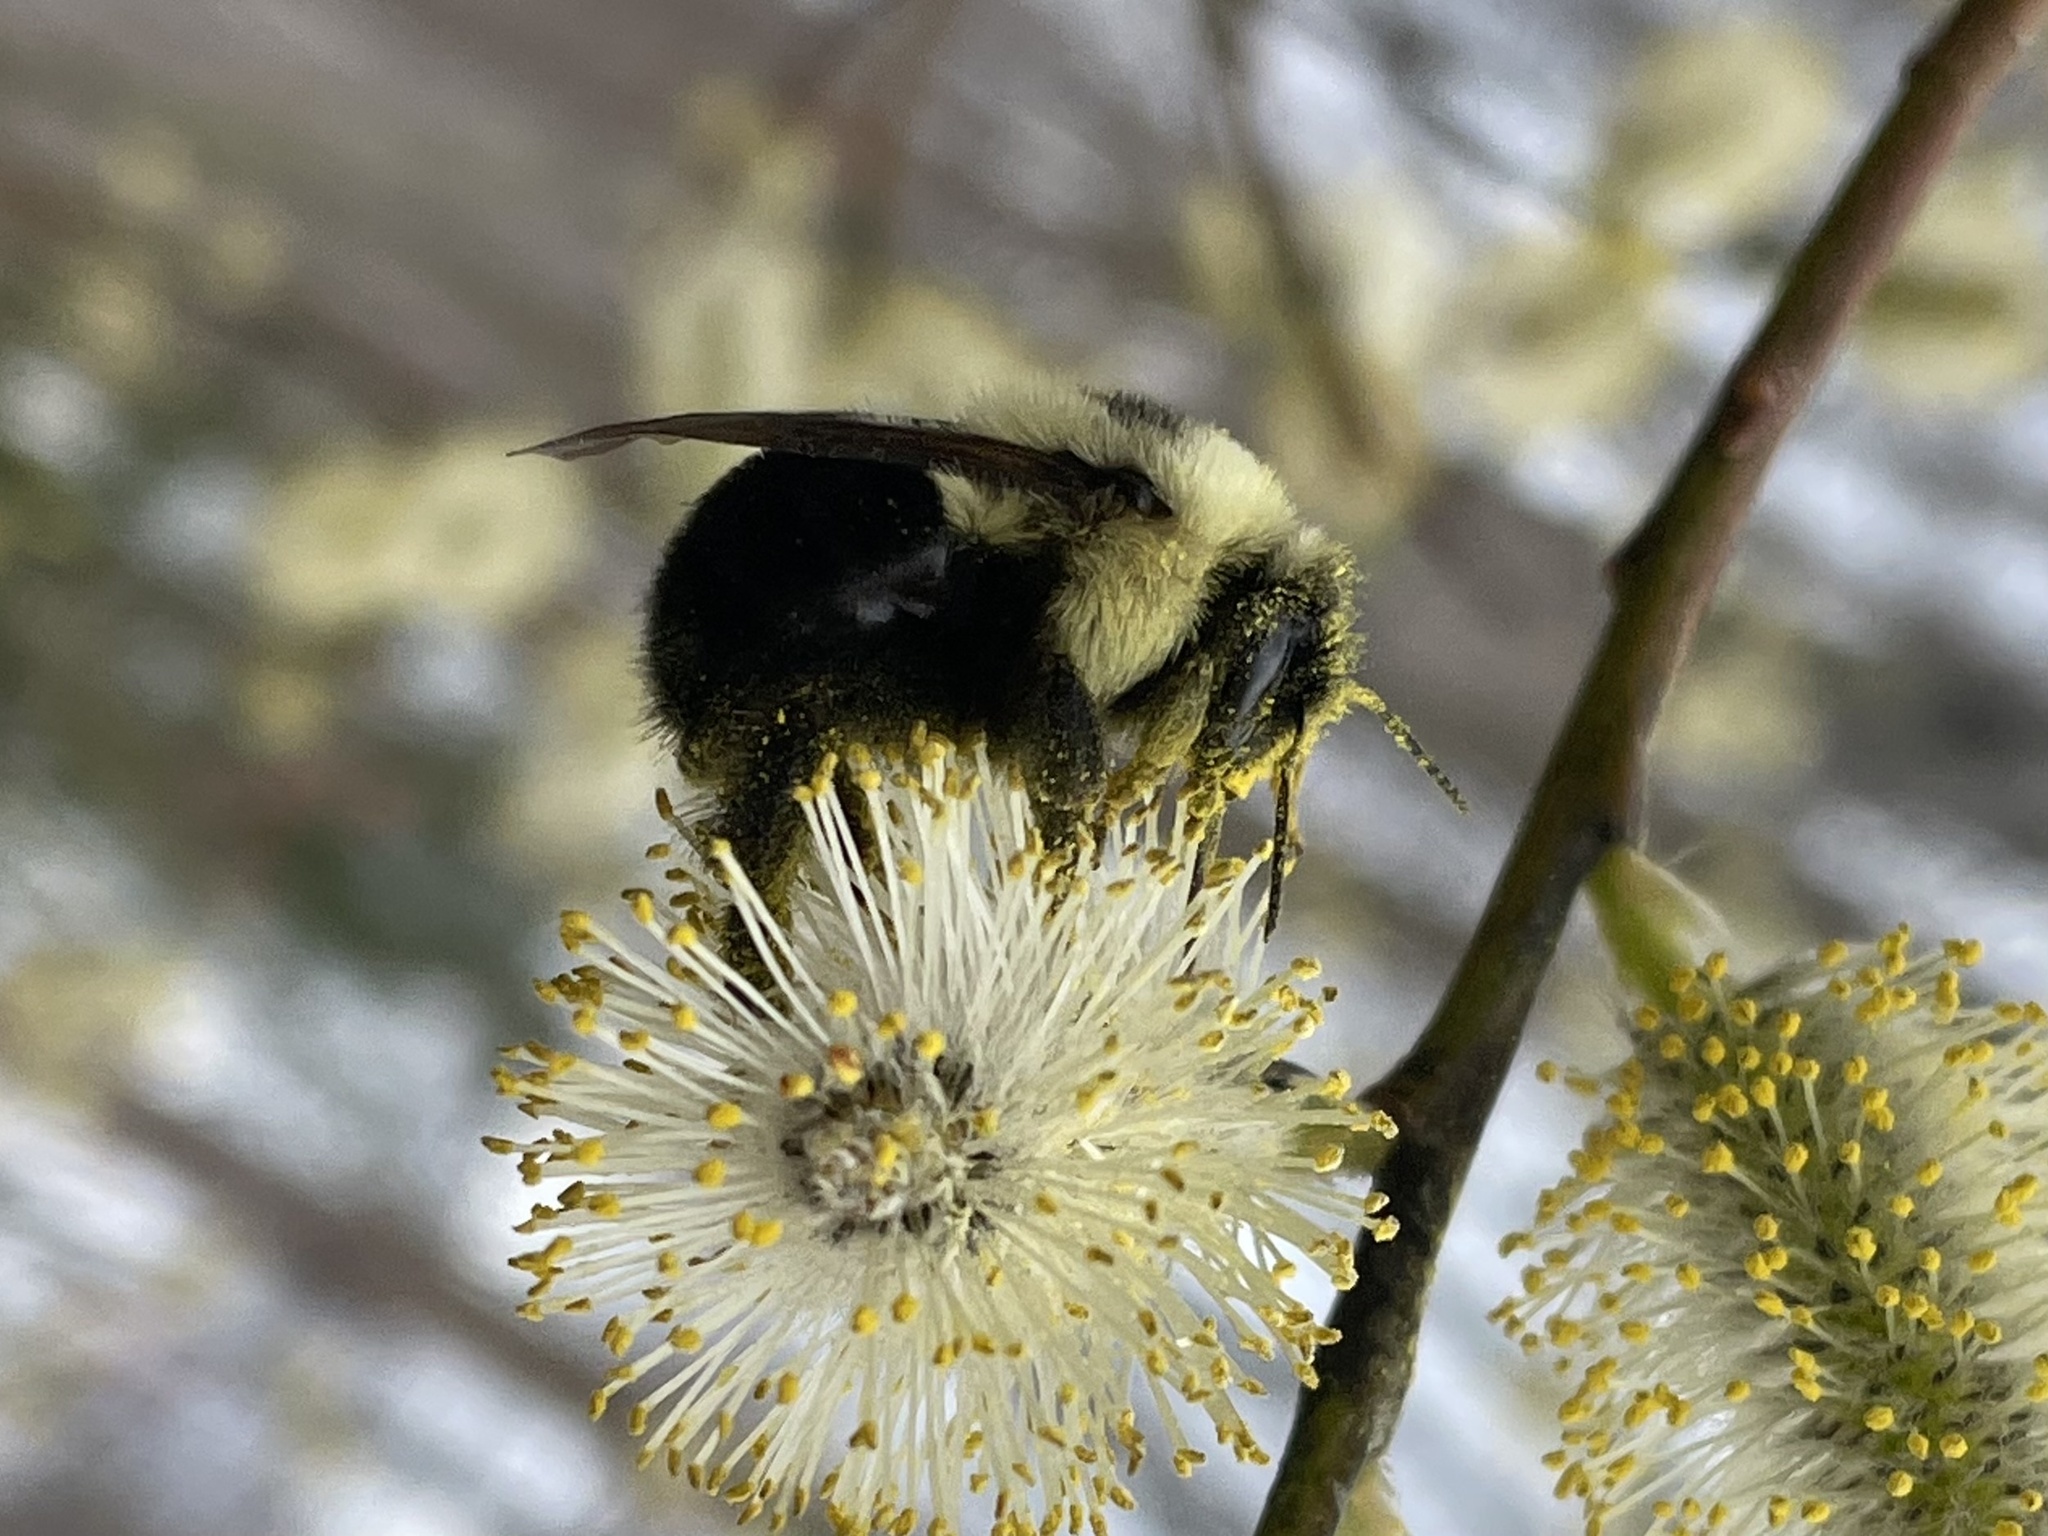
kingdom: Animalia
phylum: Arthropoda
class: Insecta
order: Hymenoptera
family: Apidae
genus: Bombus
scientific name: Bombus bimaculatus
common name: Two-spotted bumble bee
